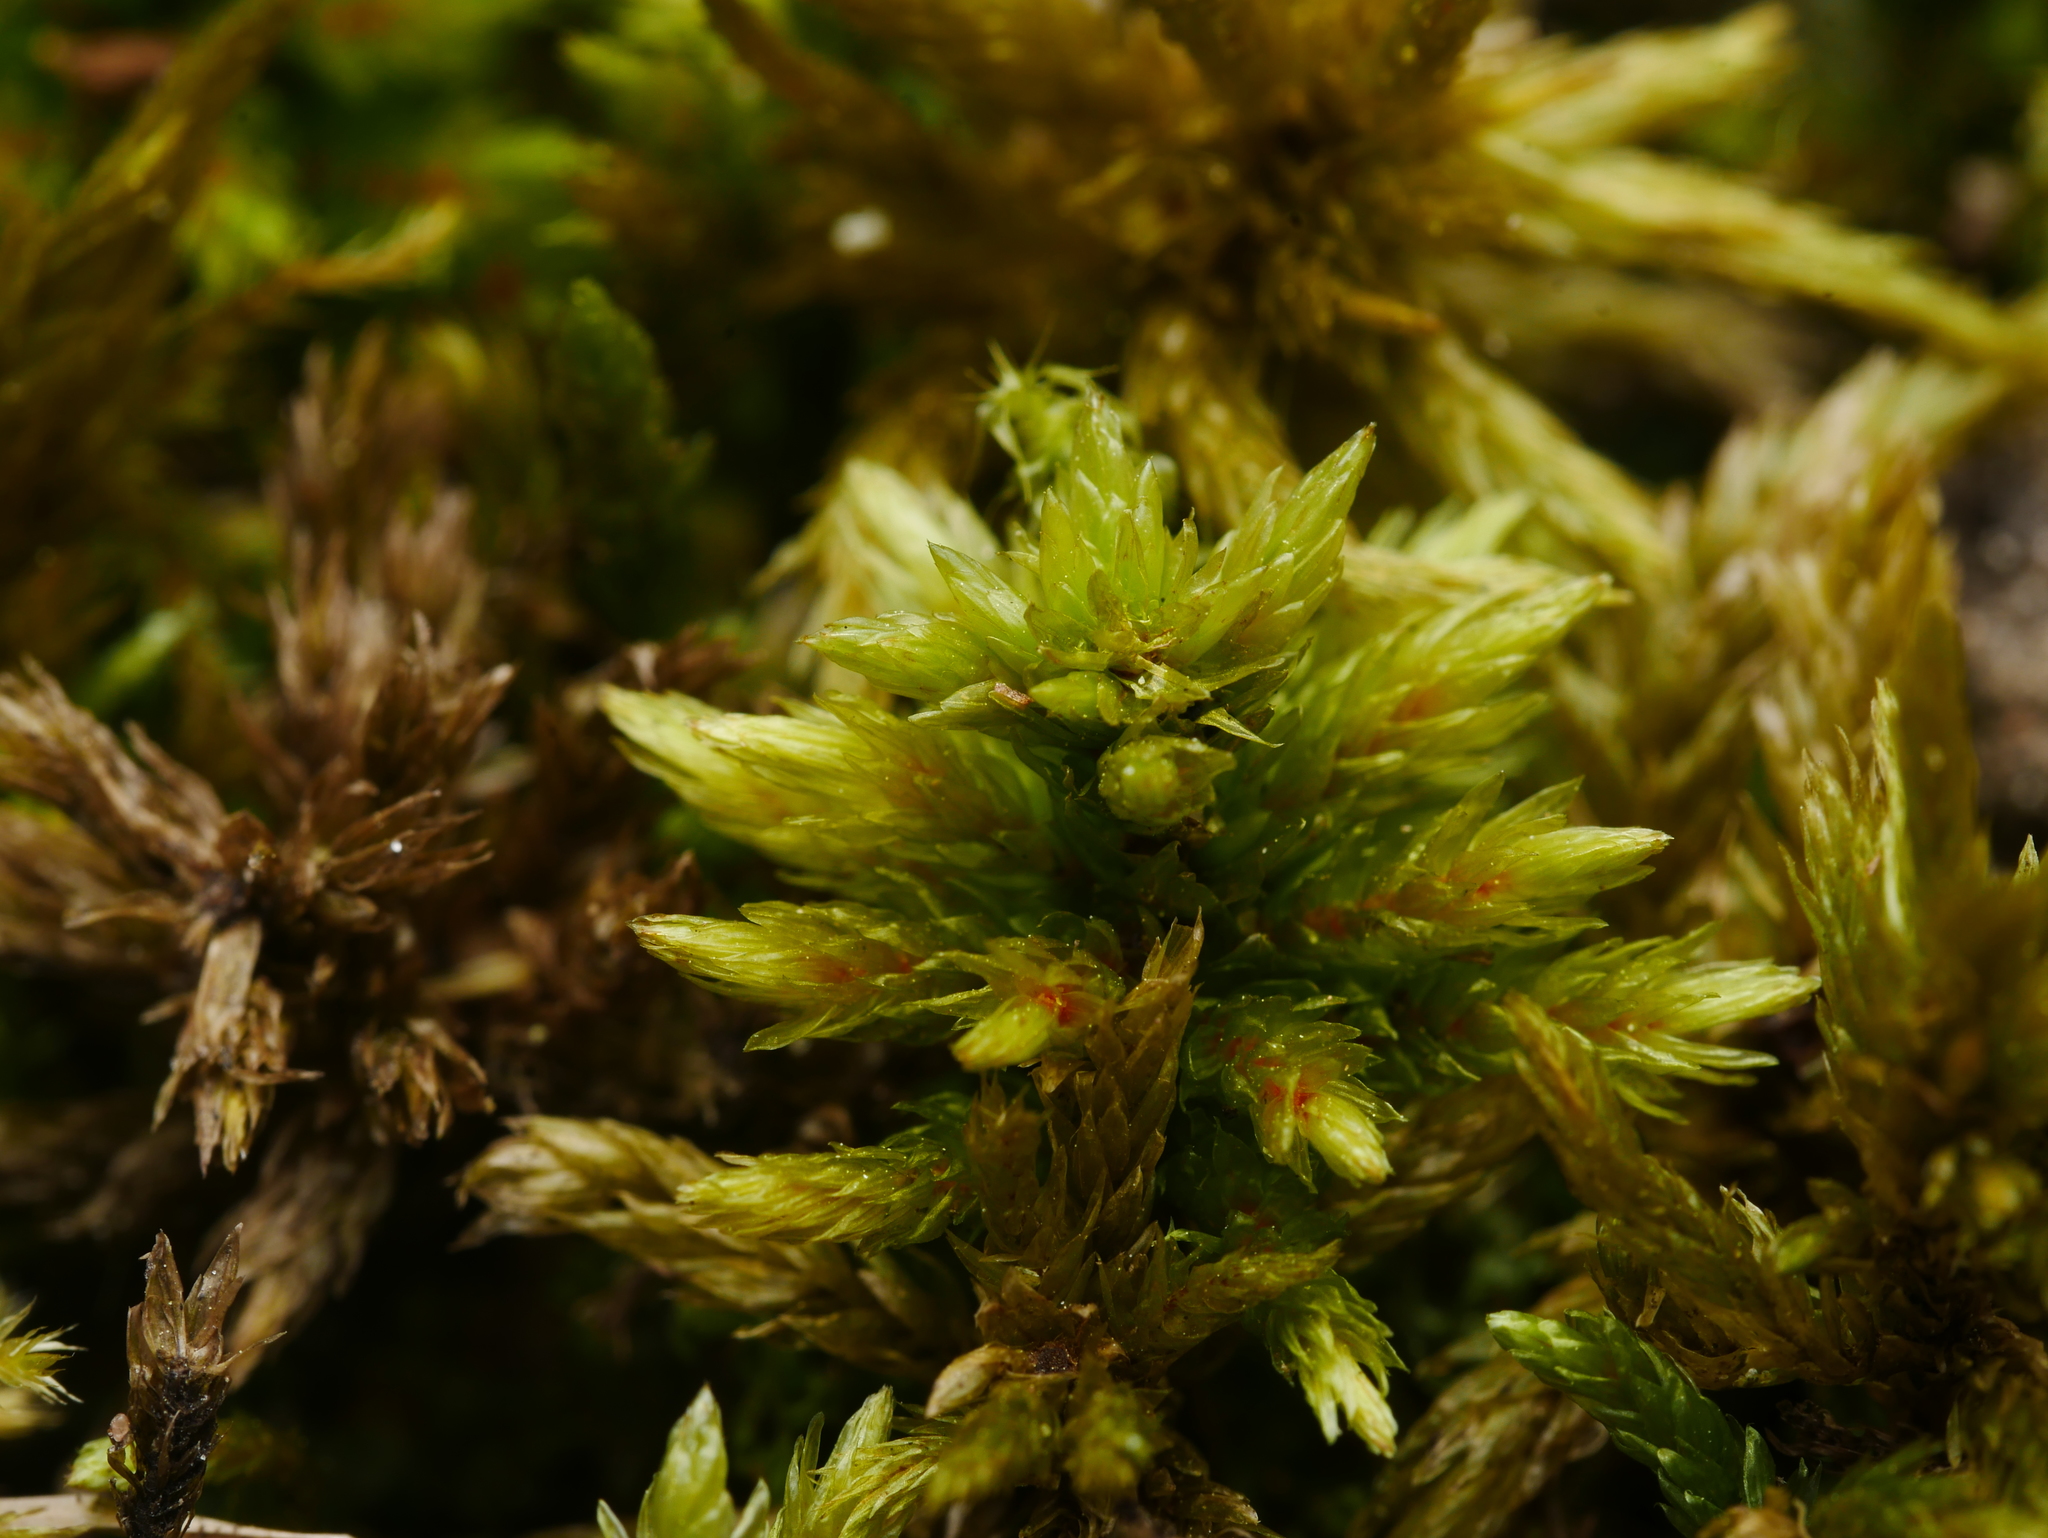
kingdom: Plantae
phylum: Bryophyta
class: Bryopsida
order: Hypnales
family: Climaciaceae
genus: Climacium
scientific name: Climacium dendroides
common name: Northern tree moss
